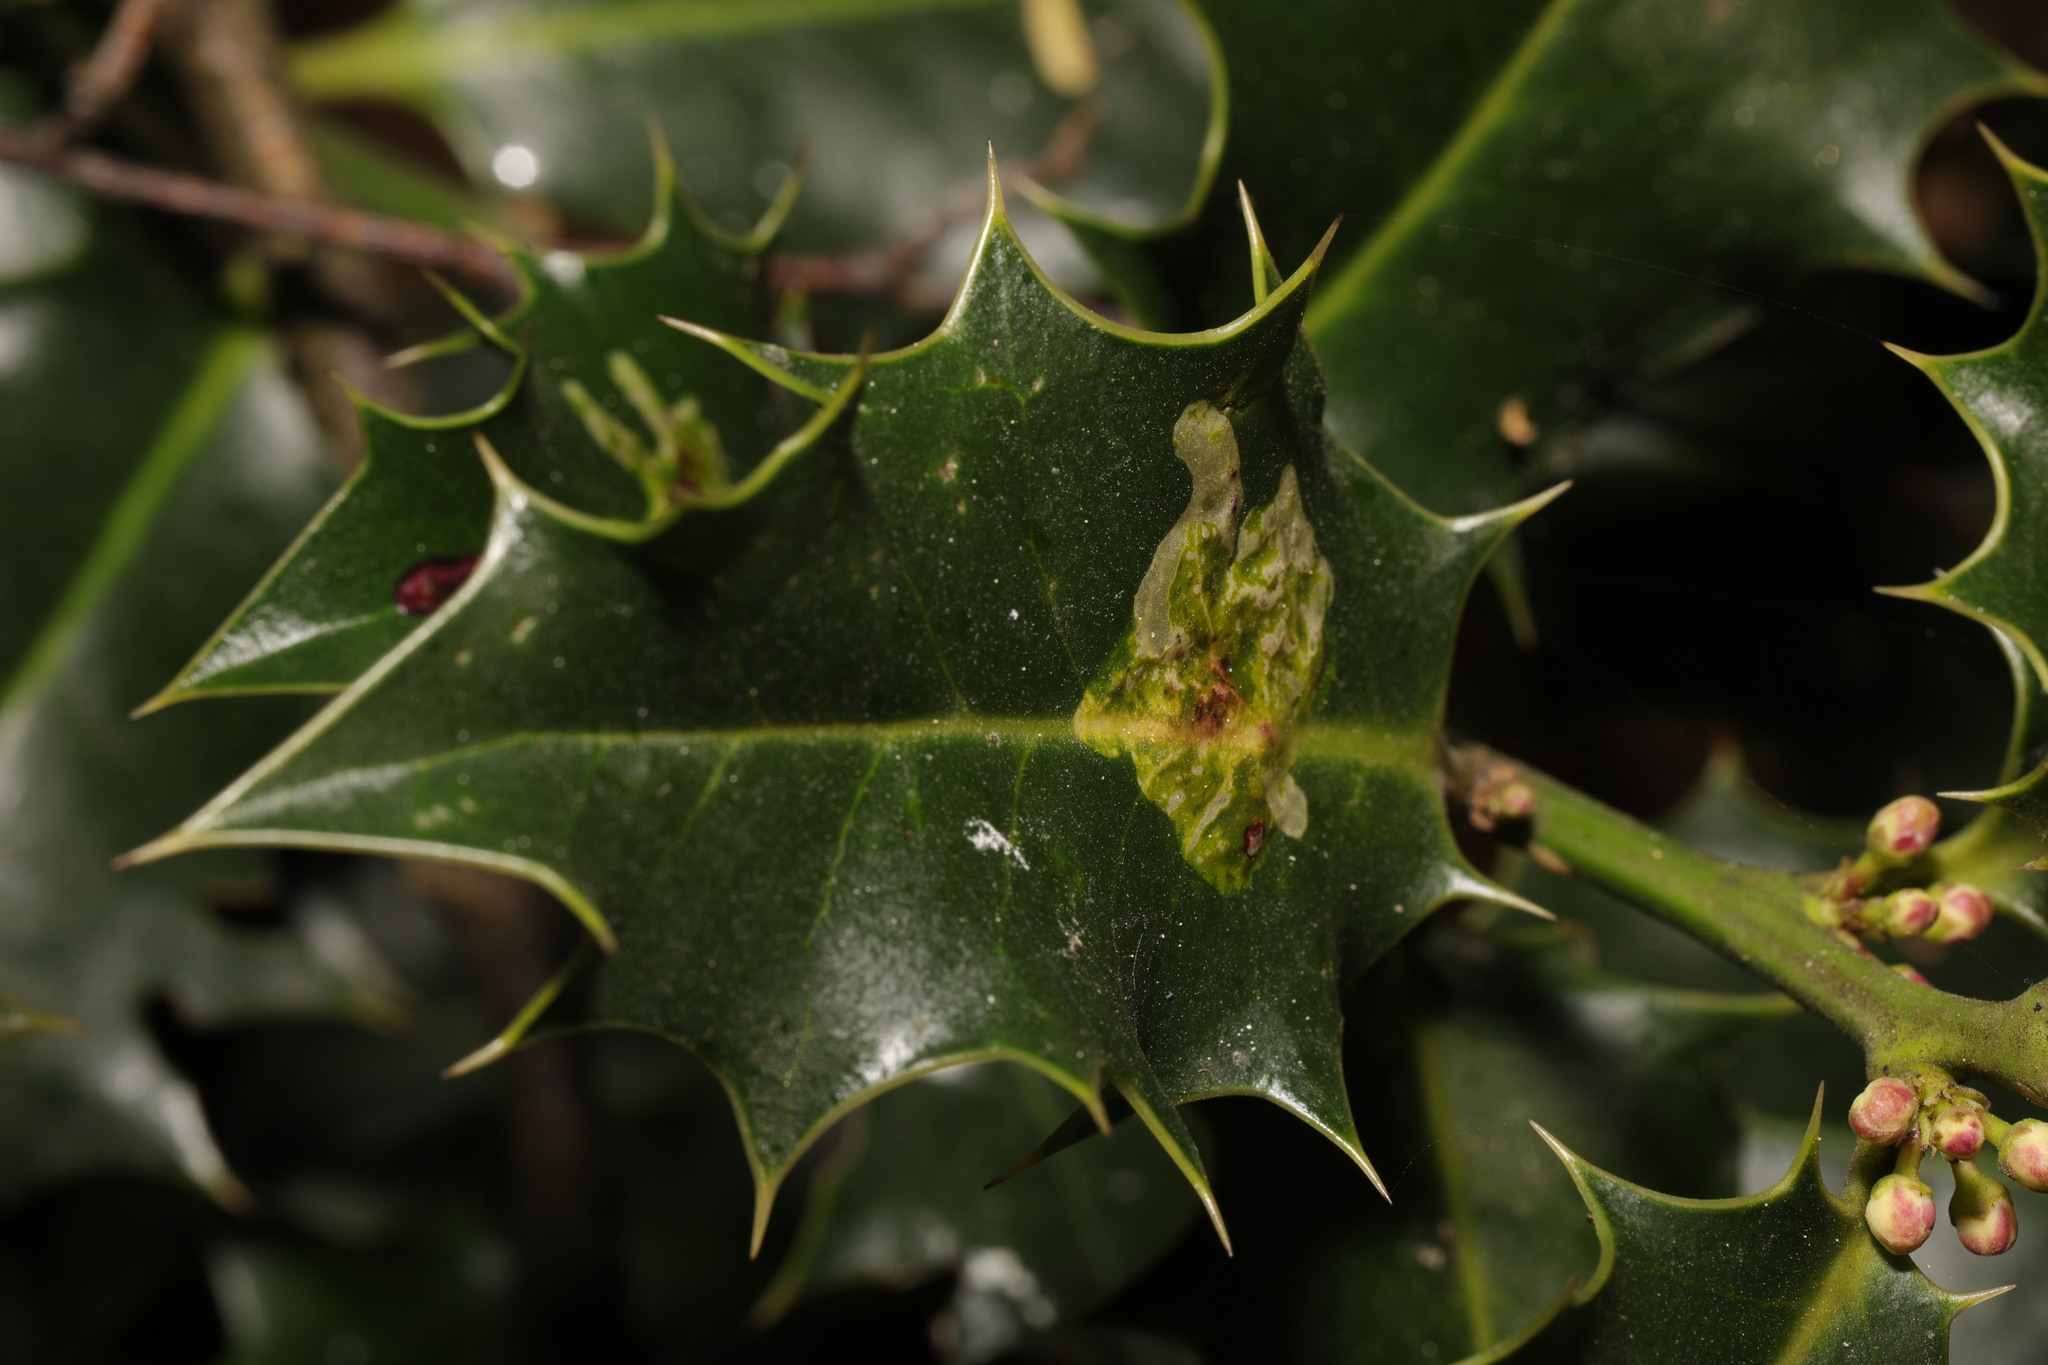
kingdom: Animalia
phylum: Arthropoda
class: Insecta
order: Diptera
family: Agromyzidae
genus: Phytomyza
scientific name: Phytomyza ilicis
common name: Holly leafminer
